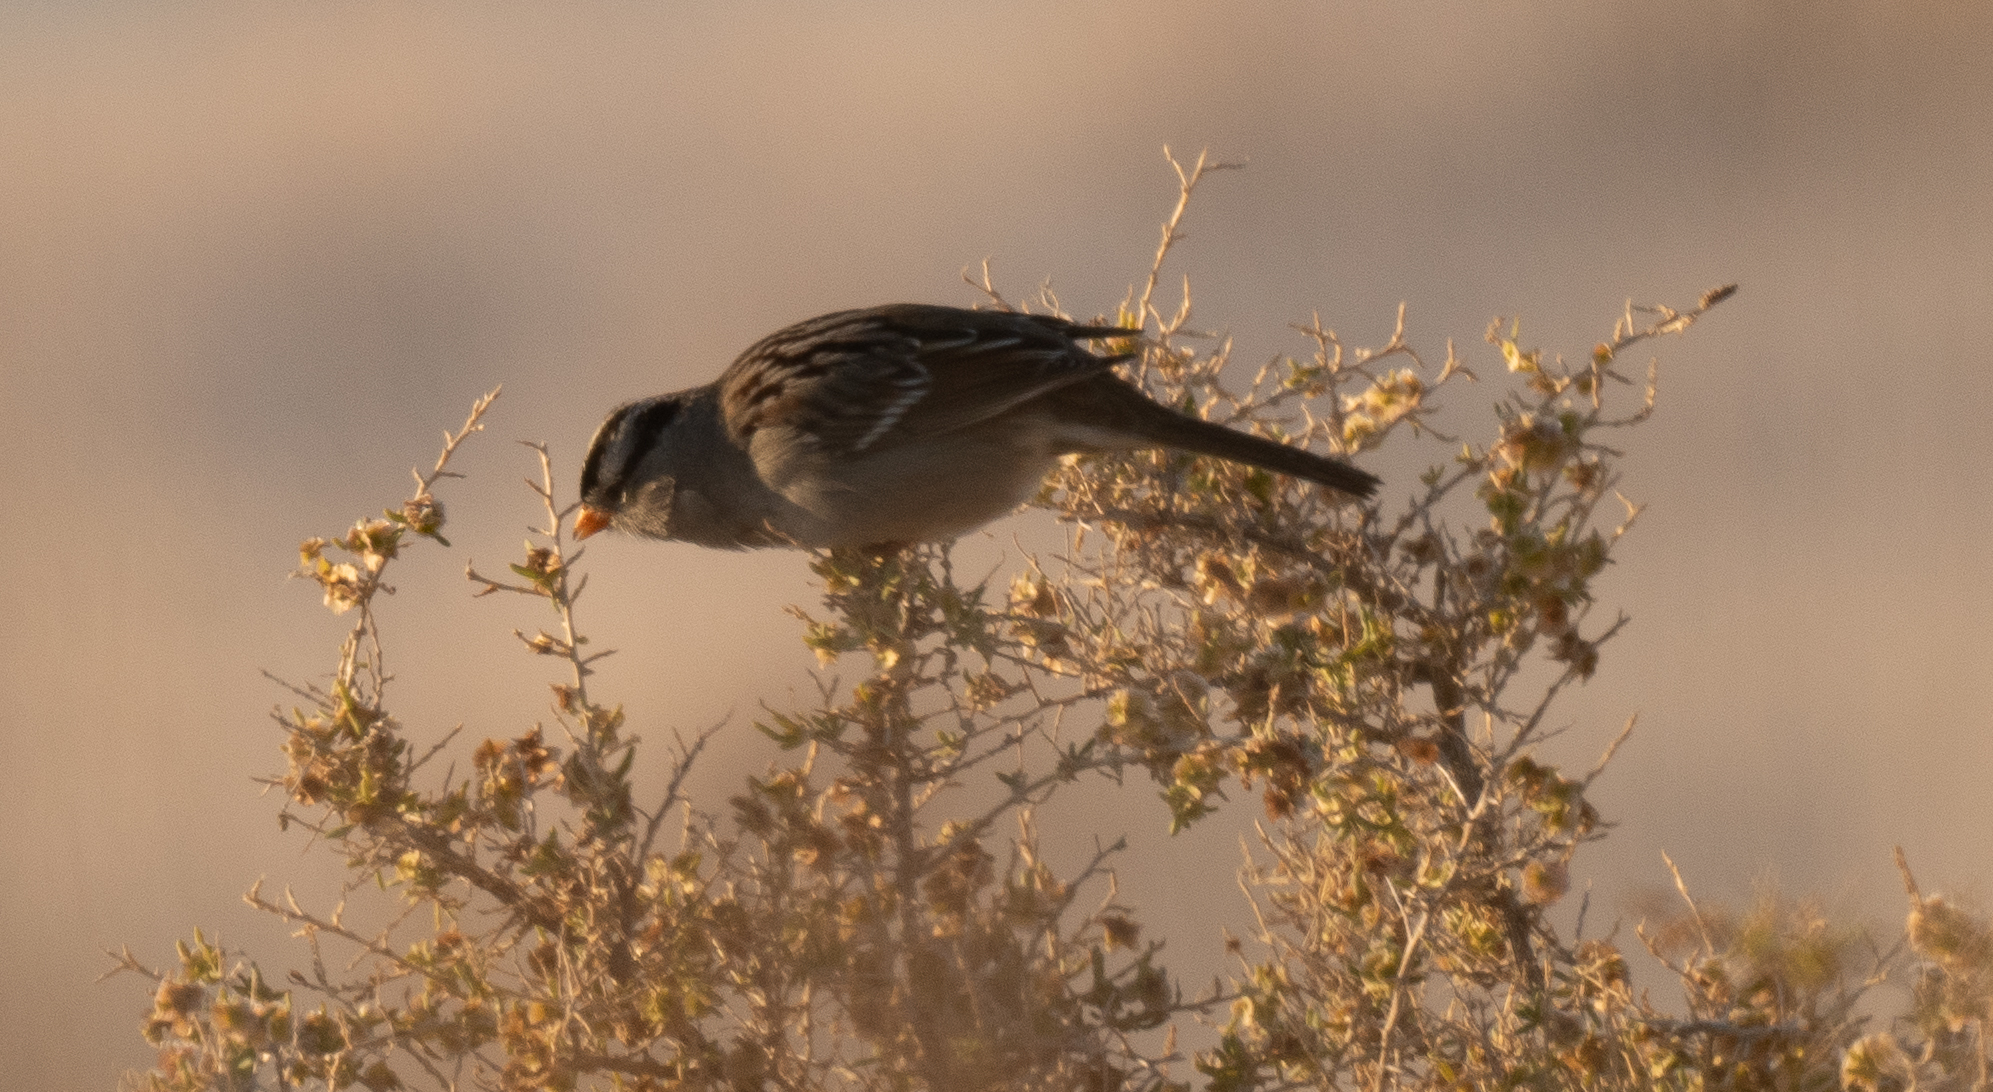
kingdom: Animalia
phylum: Chordata
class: Aves
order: Passeriformes
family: Passerellidae
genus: Zonotrichia
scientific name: Zonotrichia leucophrys
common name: White-crowned sparrow
